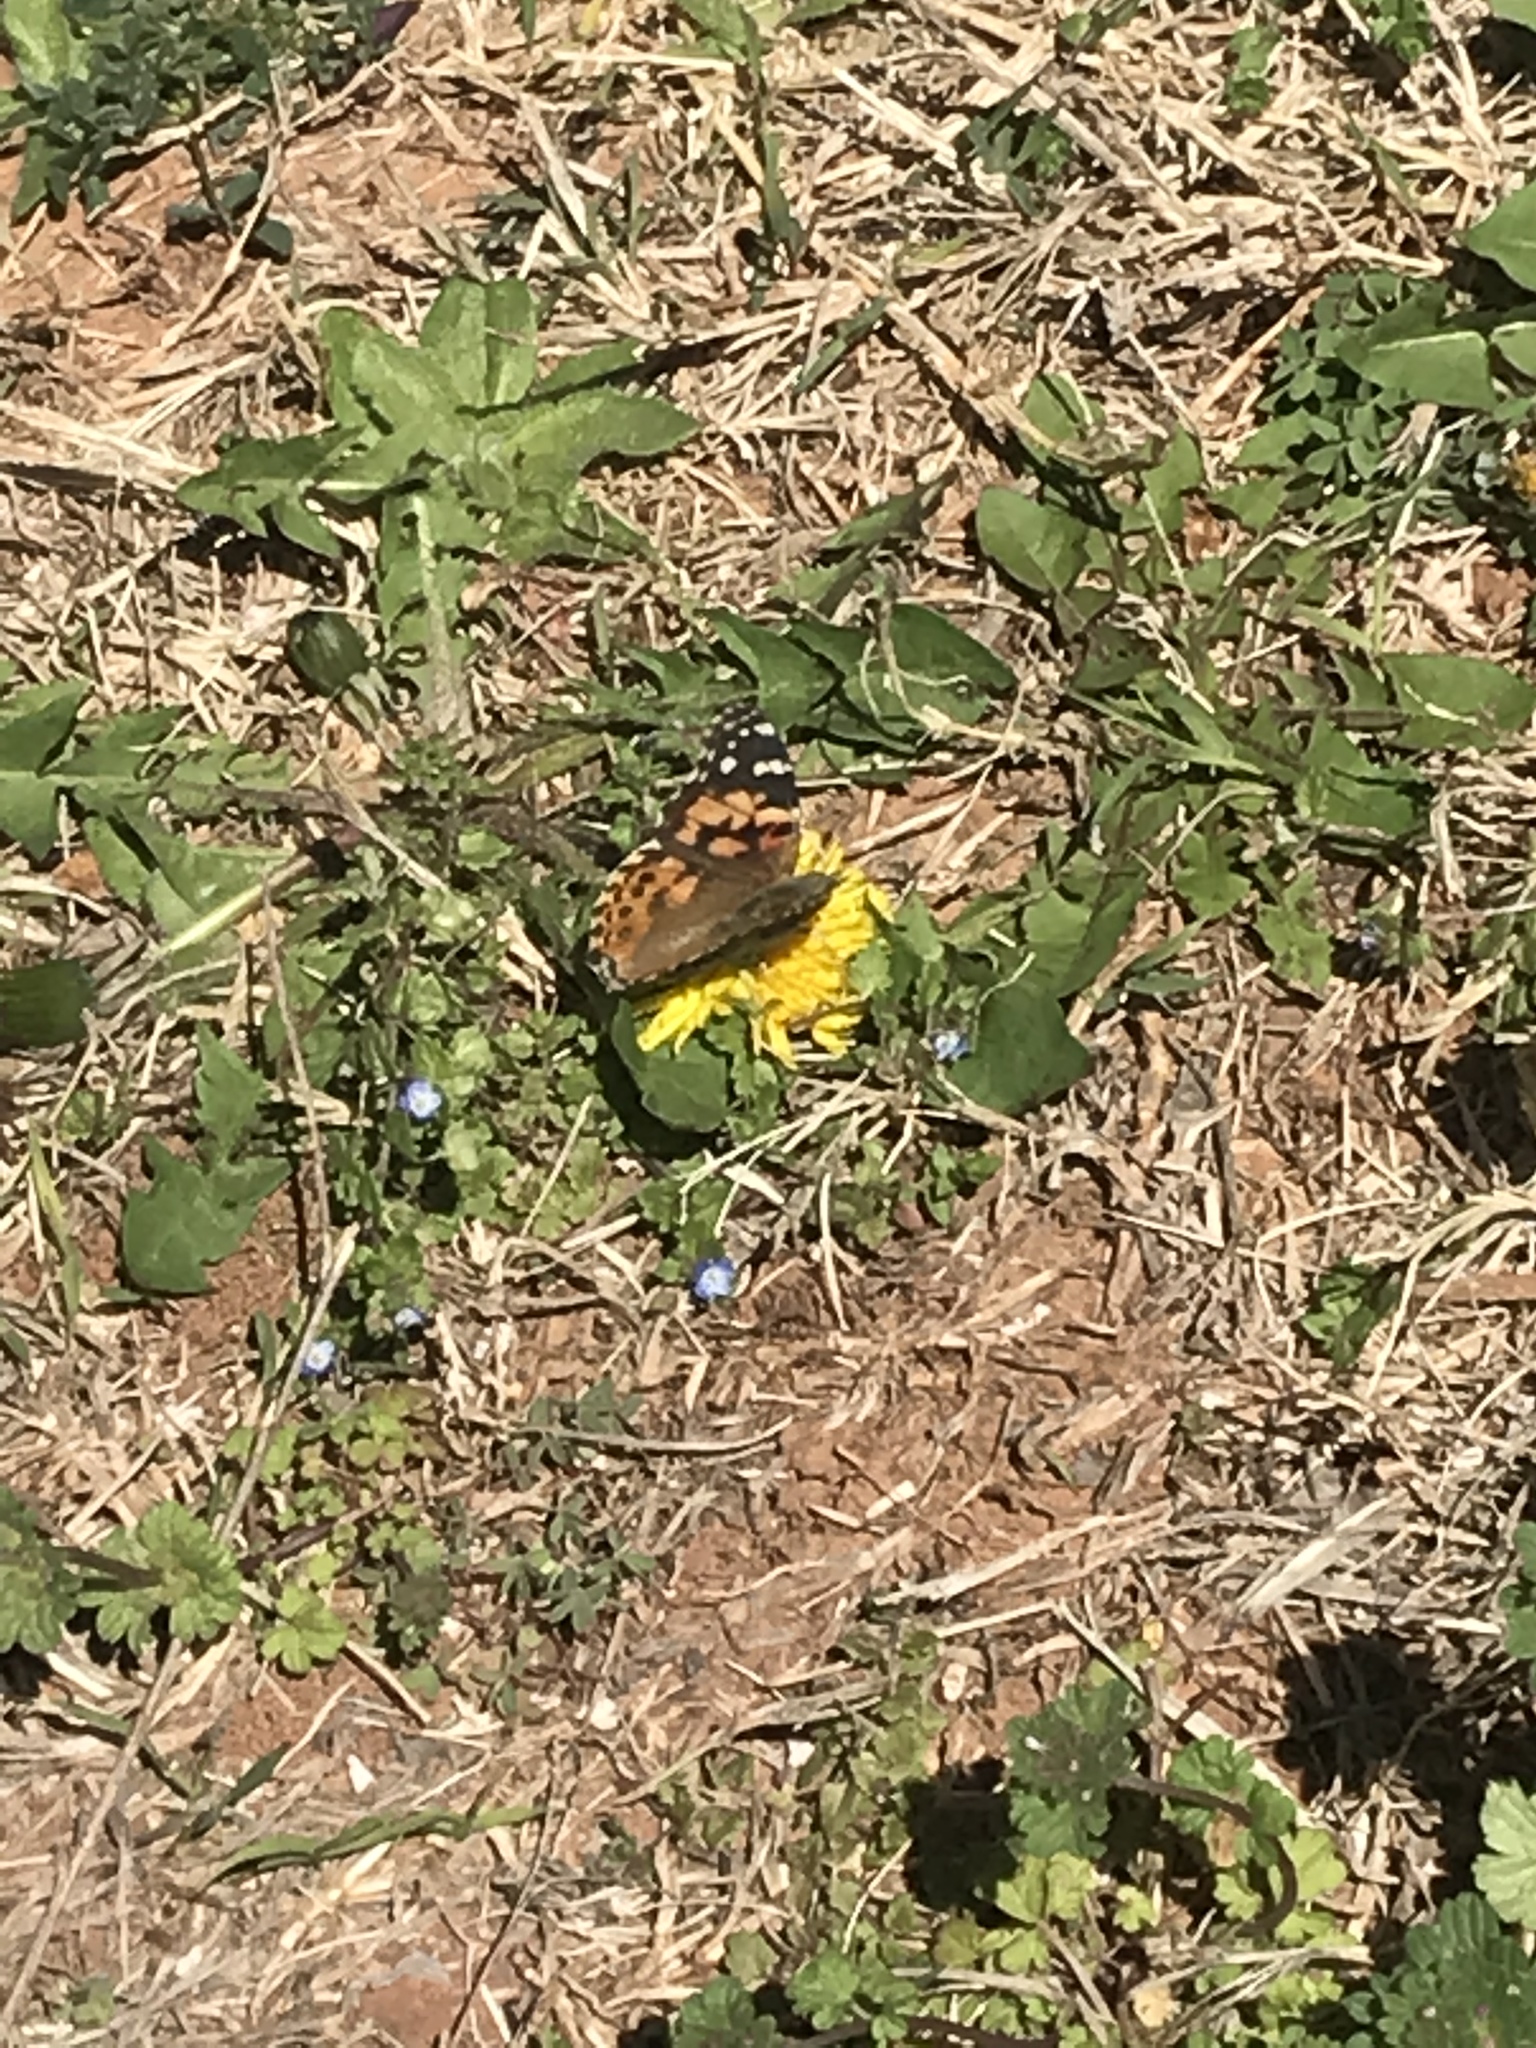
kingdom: Animalia
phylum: Arthropoda
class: Insecta
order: Lepidoptera
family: Nymphalidae
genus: Vanessa
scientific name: Vanessa cardui
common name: Painted lady
